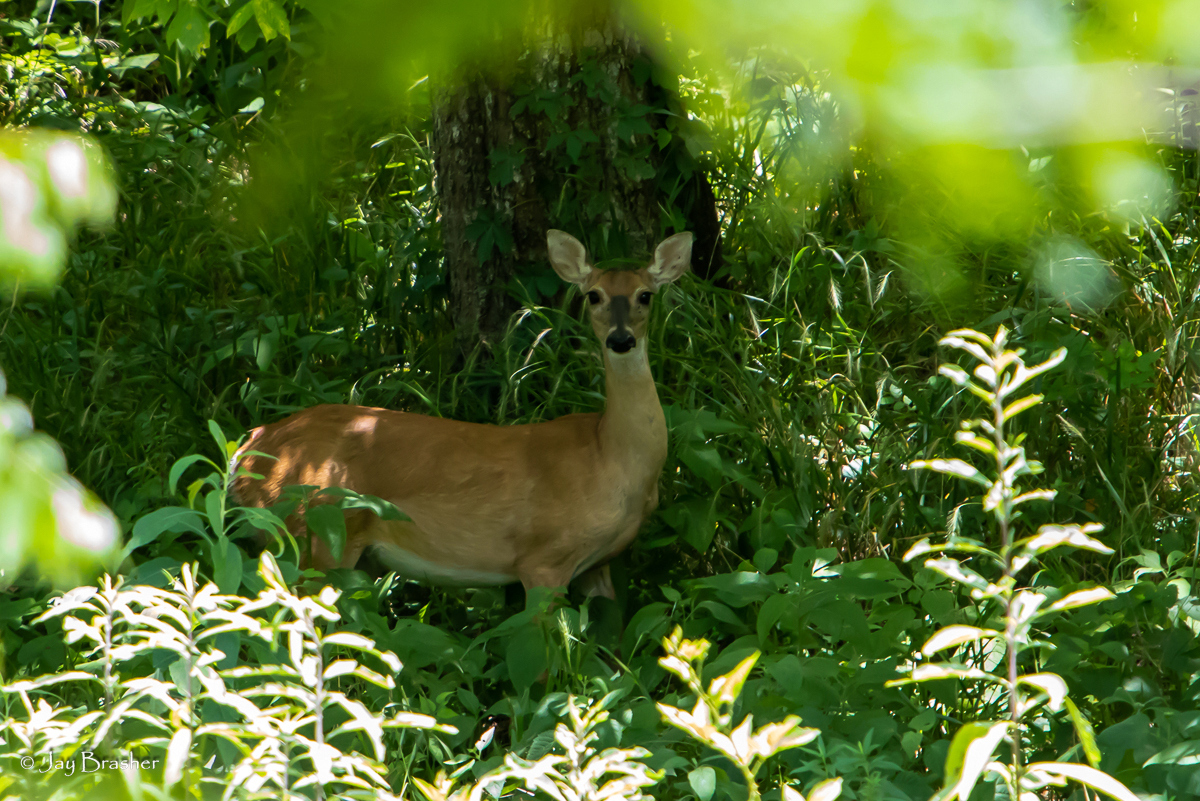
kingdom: Animalia
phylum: Chordata
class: Mammalia
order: Artiodactyla
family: Cervidae
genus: Odocoileus
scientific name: Odocoileus virginianus
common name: White-tailed deer
